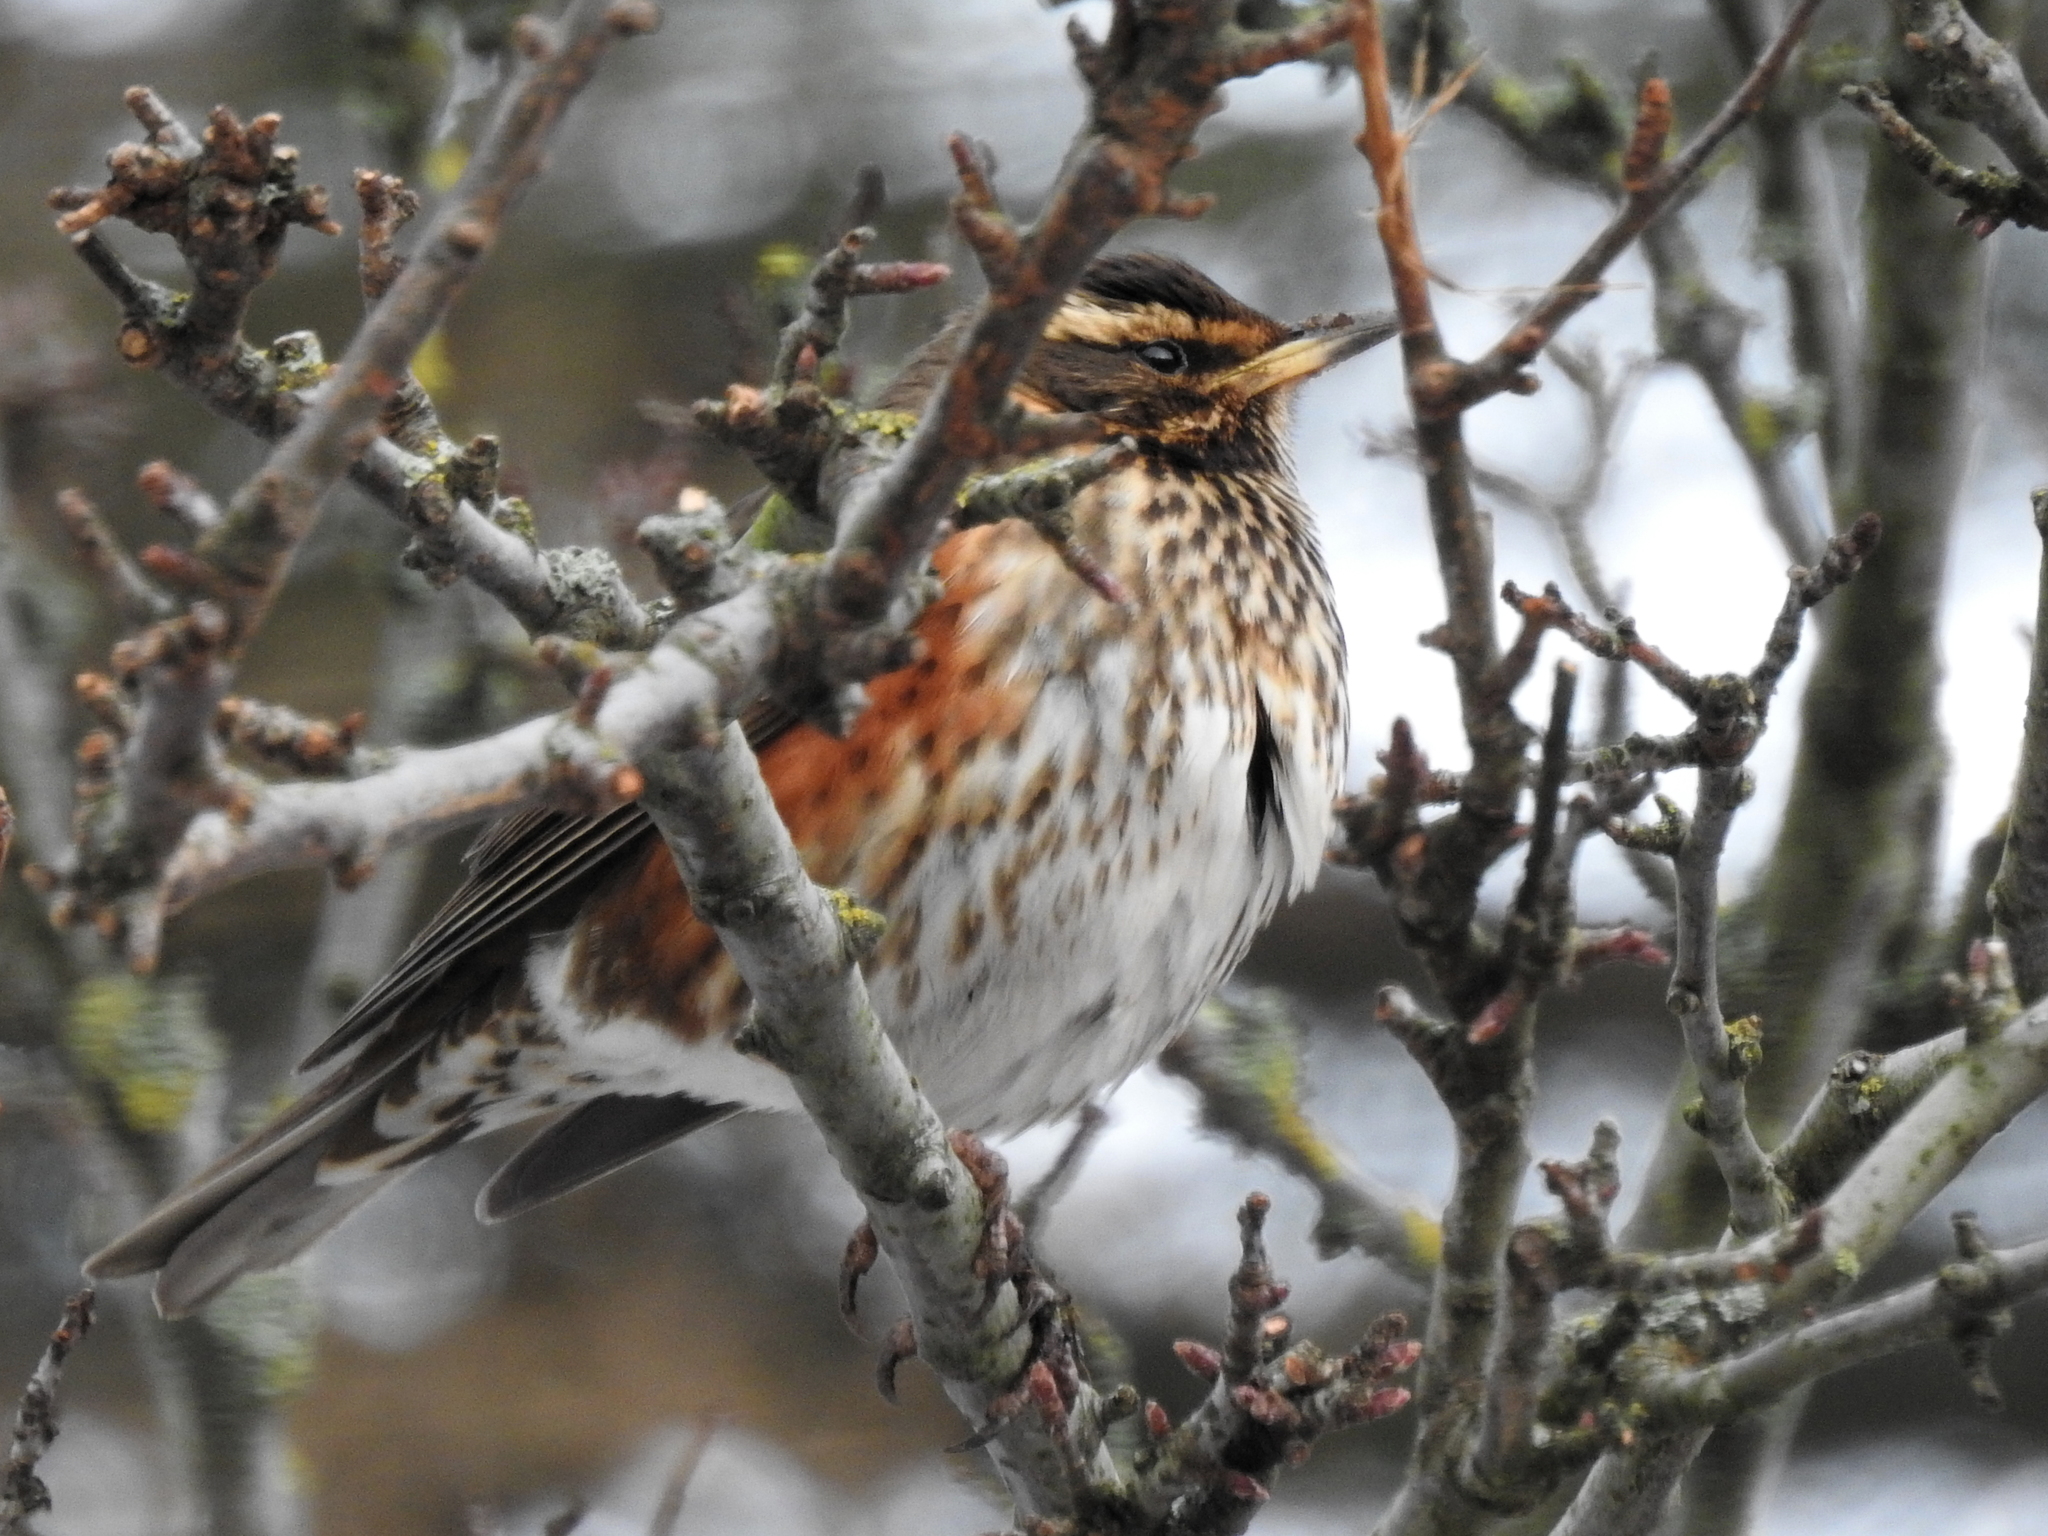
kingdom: Animalia
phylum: Chordata
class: Aves
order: Passeriformes
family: Turdidae
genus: Turdus
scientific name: Turdus iliacus
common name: Redwing
